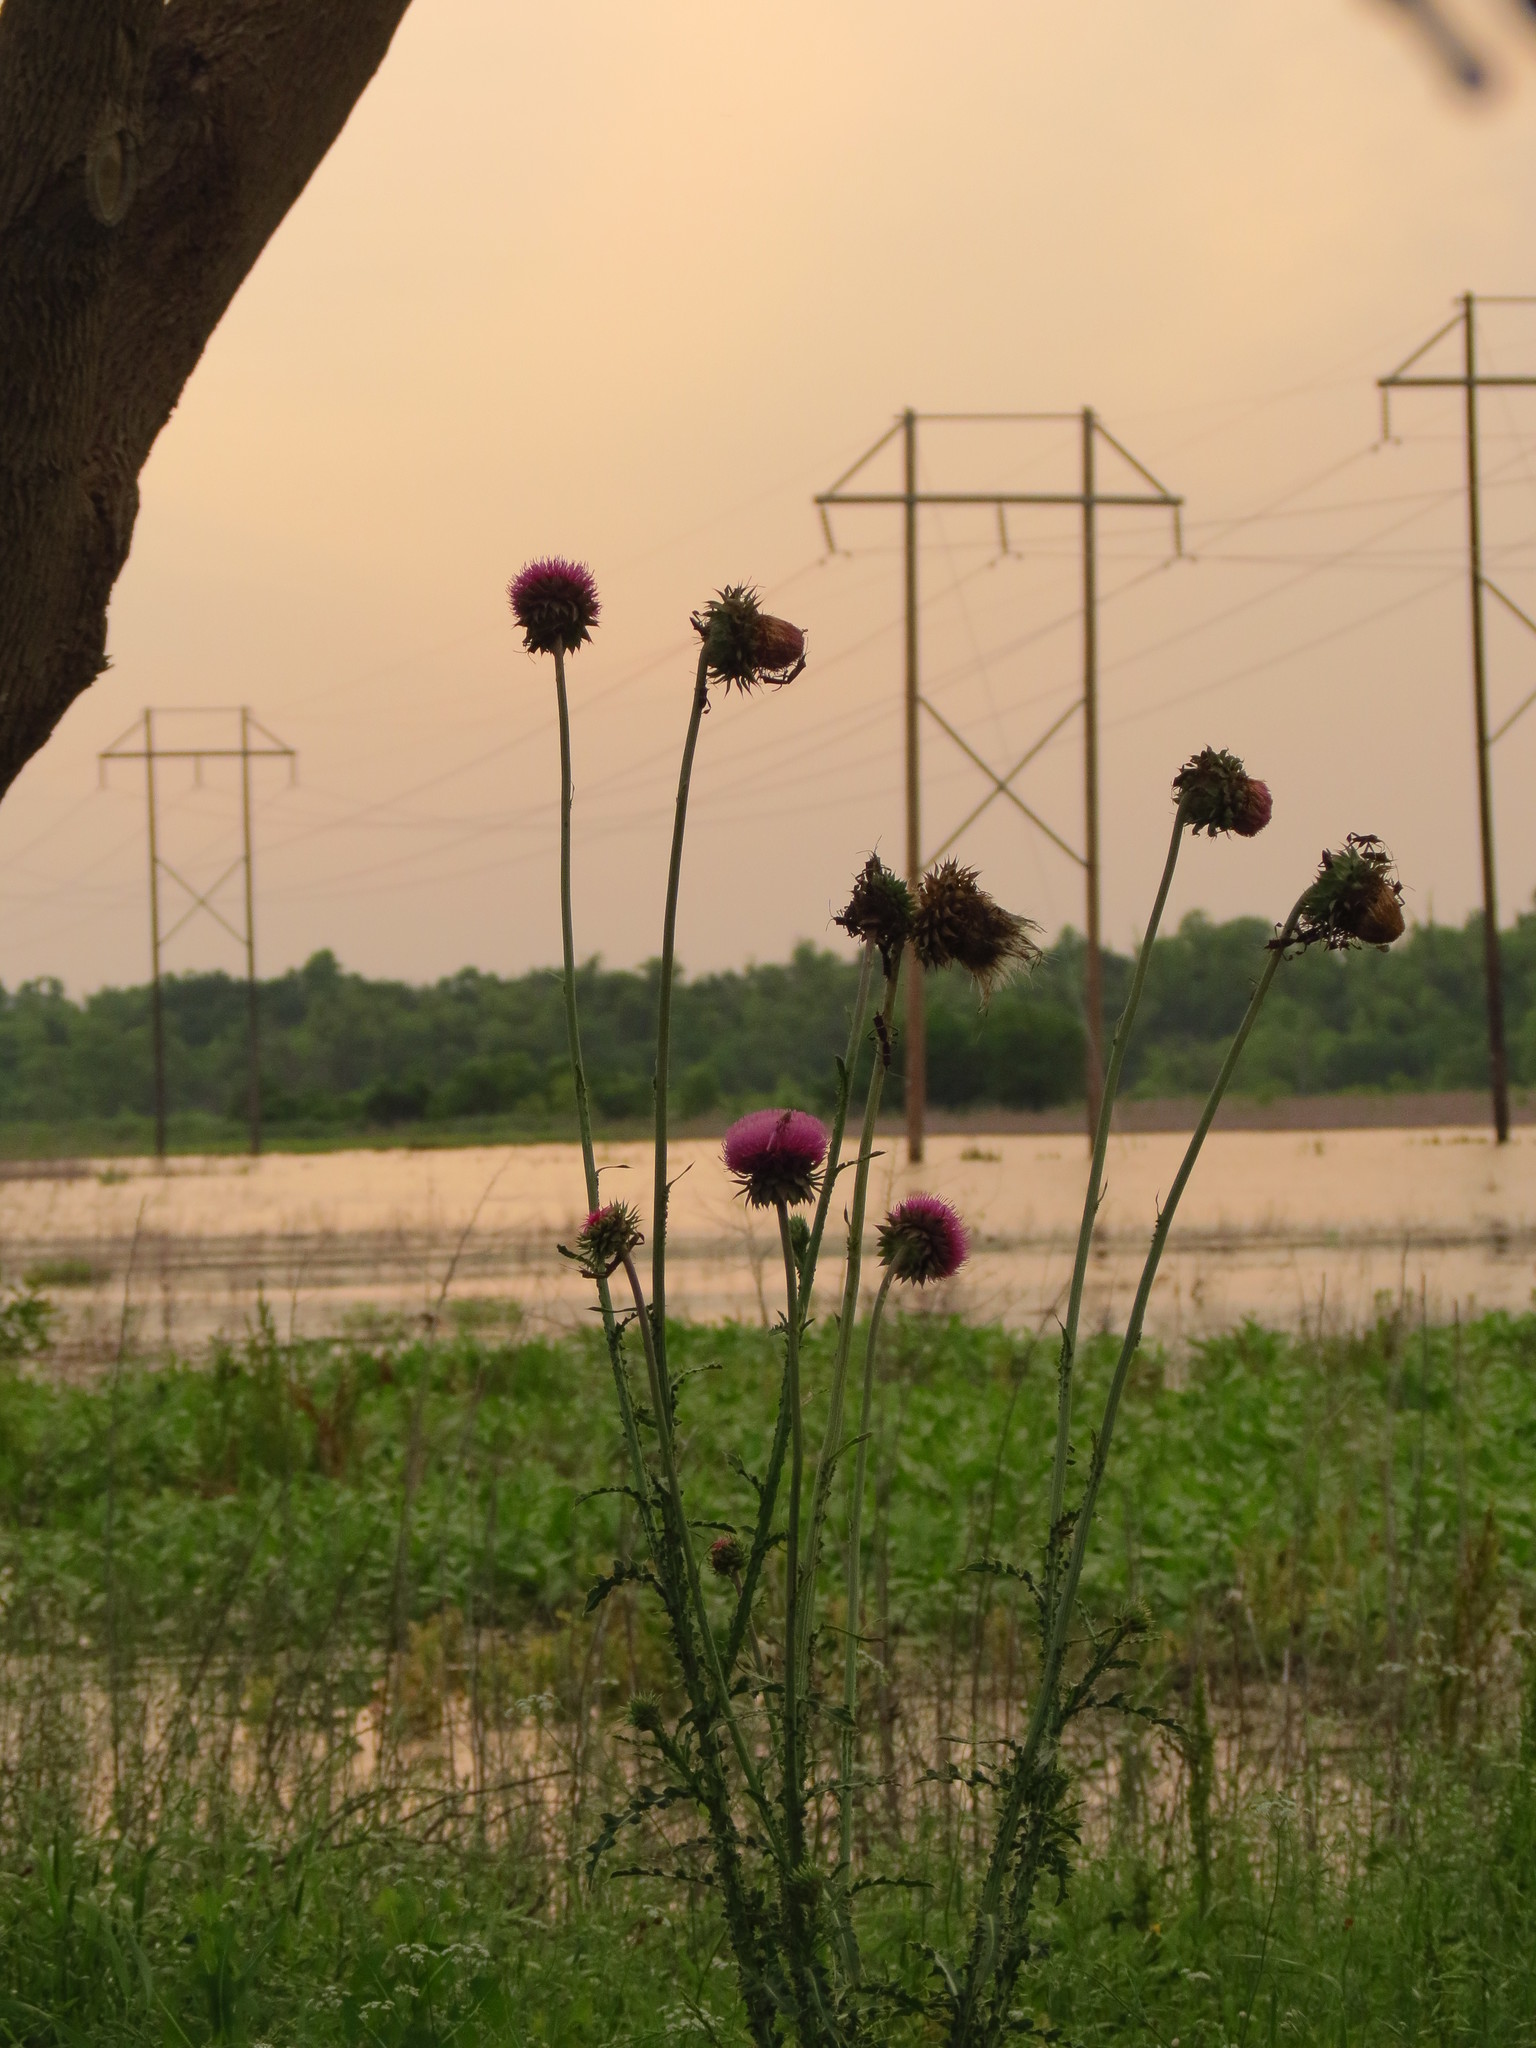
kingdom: Plantae
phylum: Tracheophyta
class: Magnoliopsida
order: Asterales
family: Asteraceae
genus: Carduus
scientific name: Carduus nutans
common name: Musk thistle
